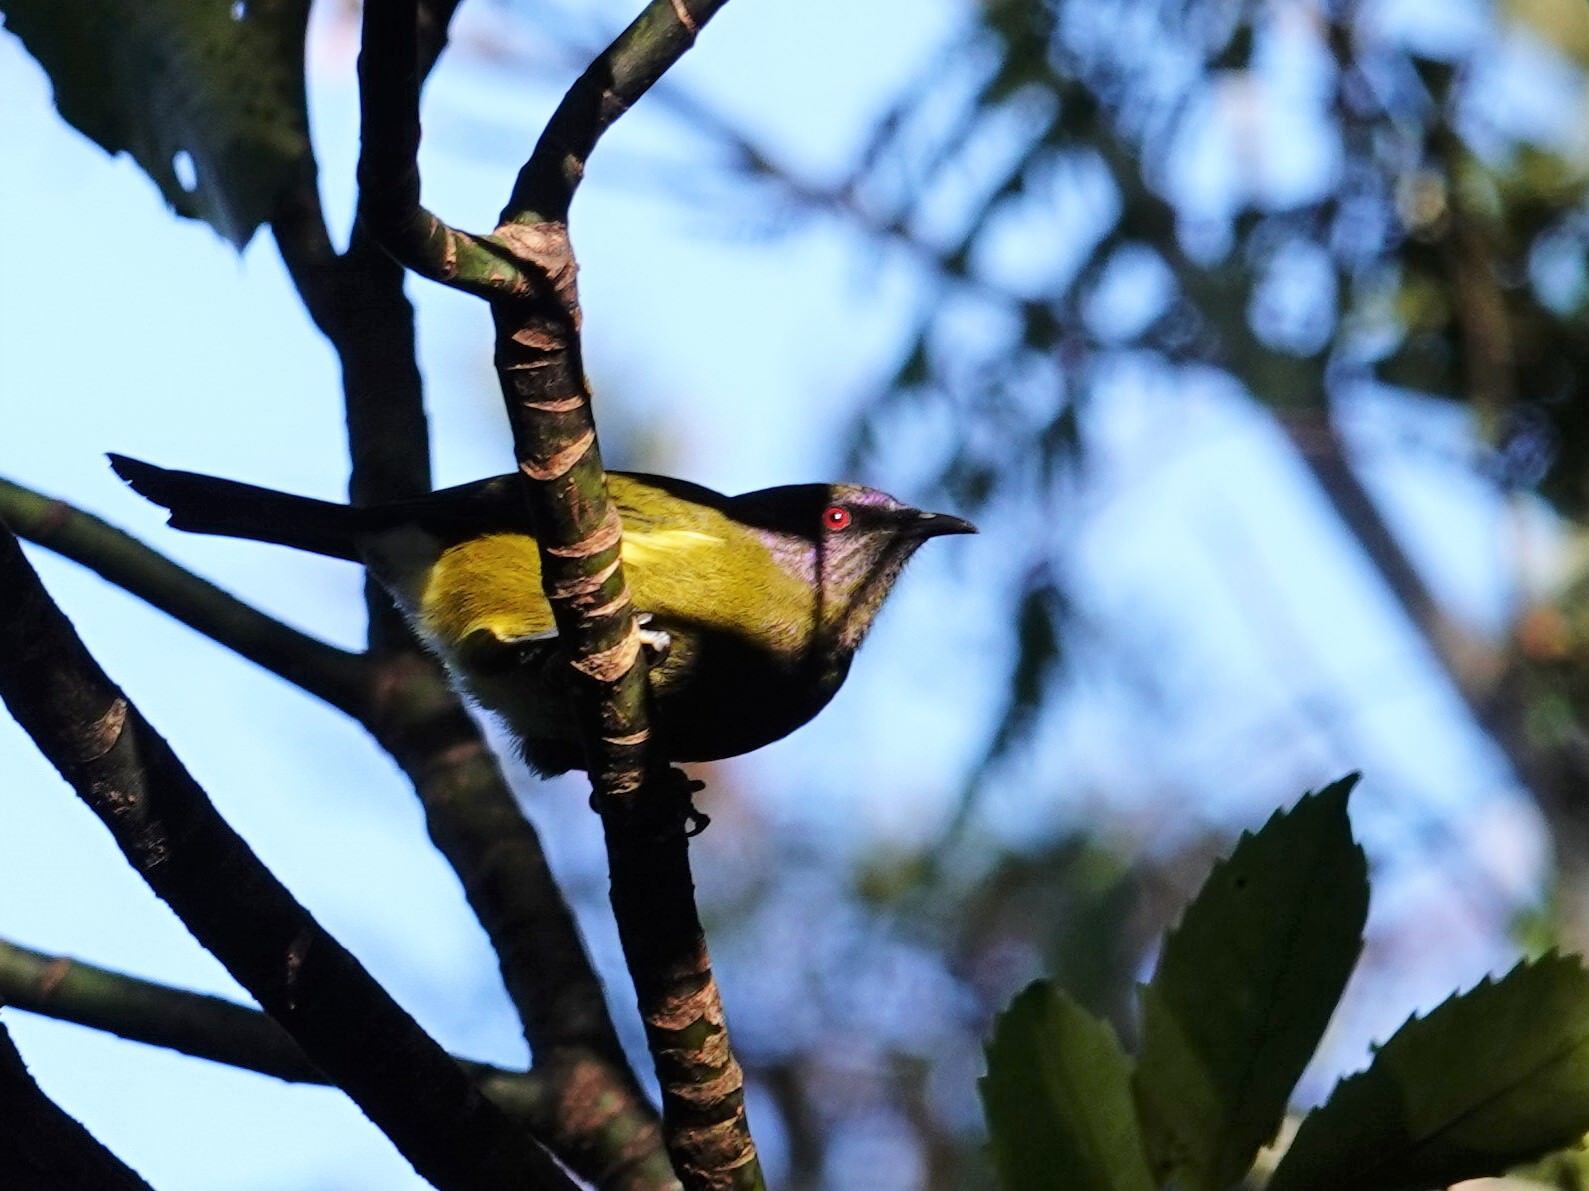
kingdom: Animalia
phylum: Chordata
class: Aves
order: Passeriformes
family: Meliphagidae
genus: Anthornis
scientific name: Anthornis melanura
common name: New zealand bellbird
